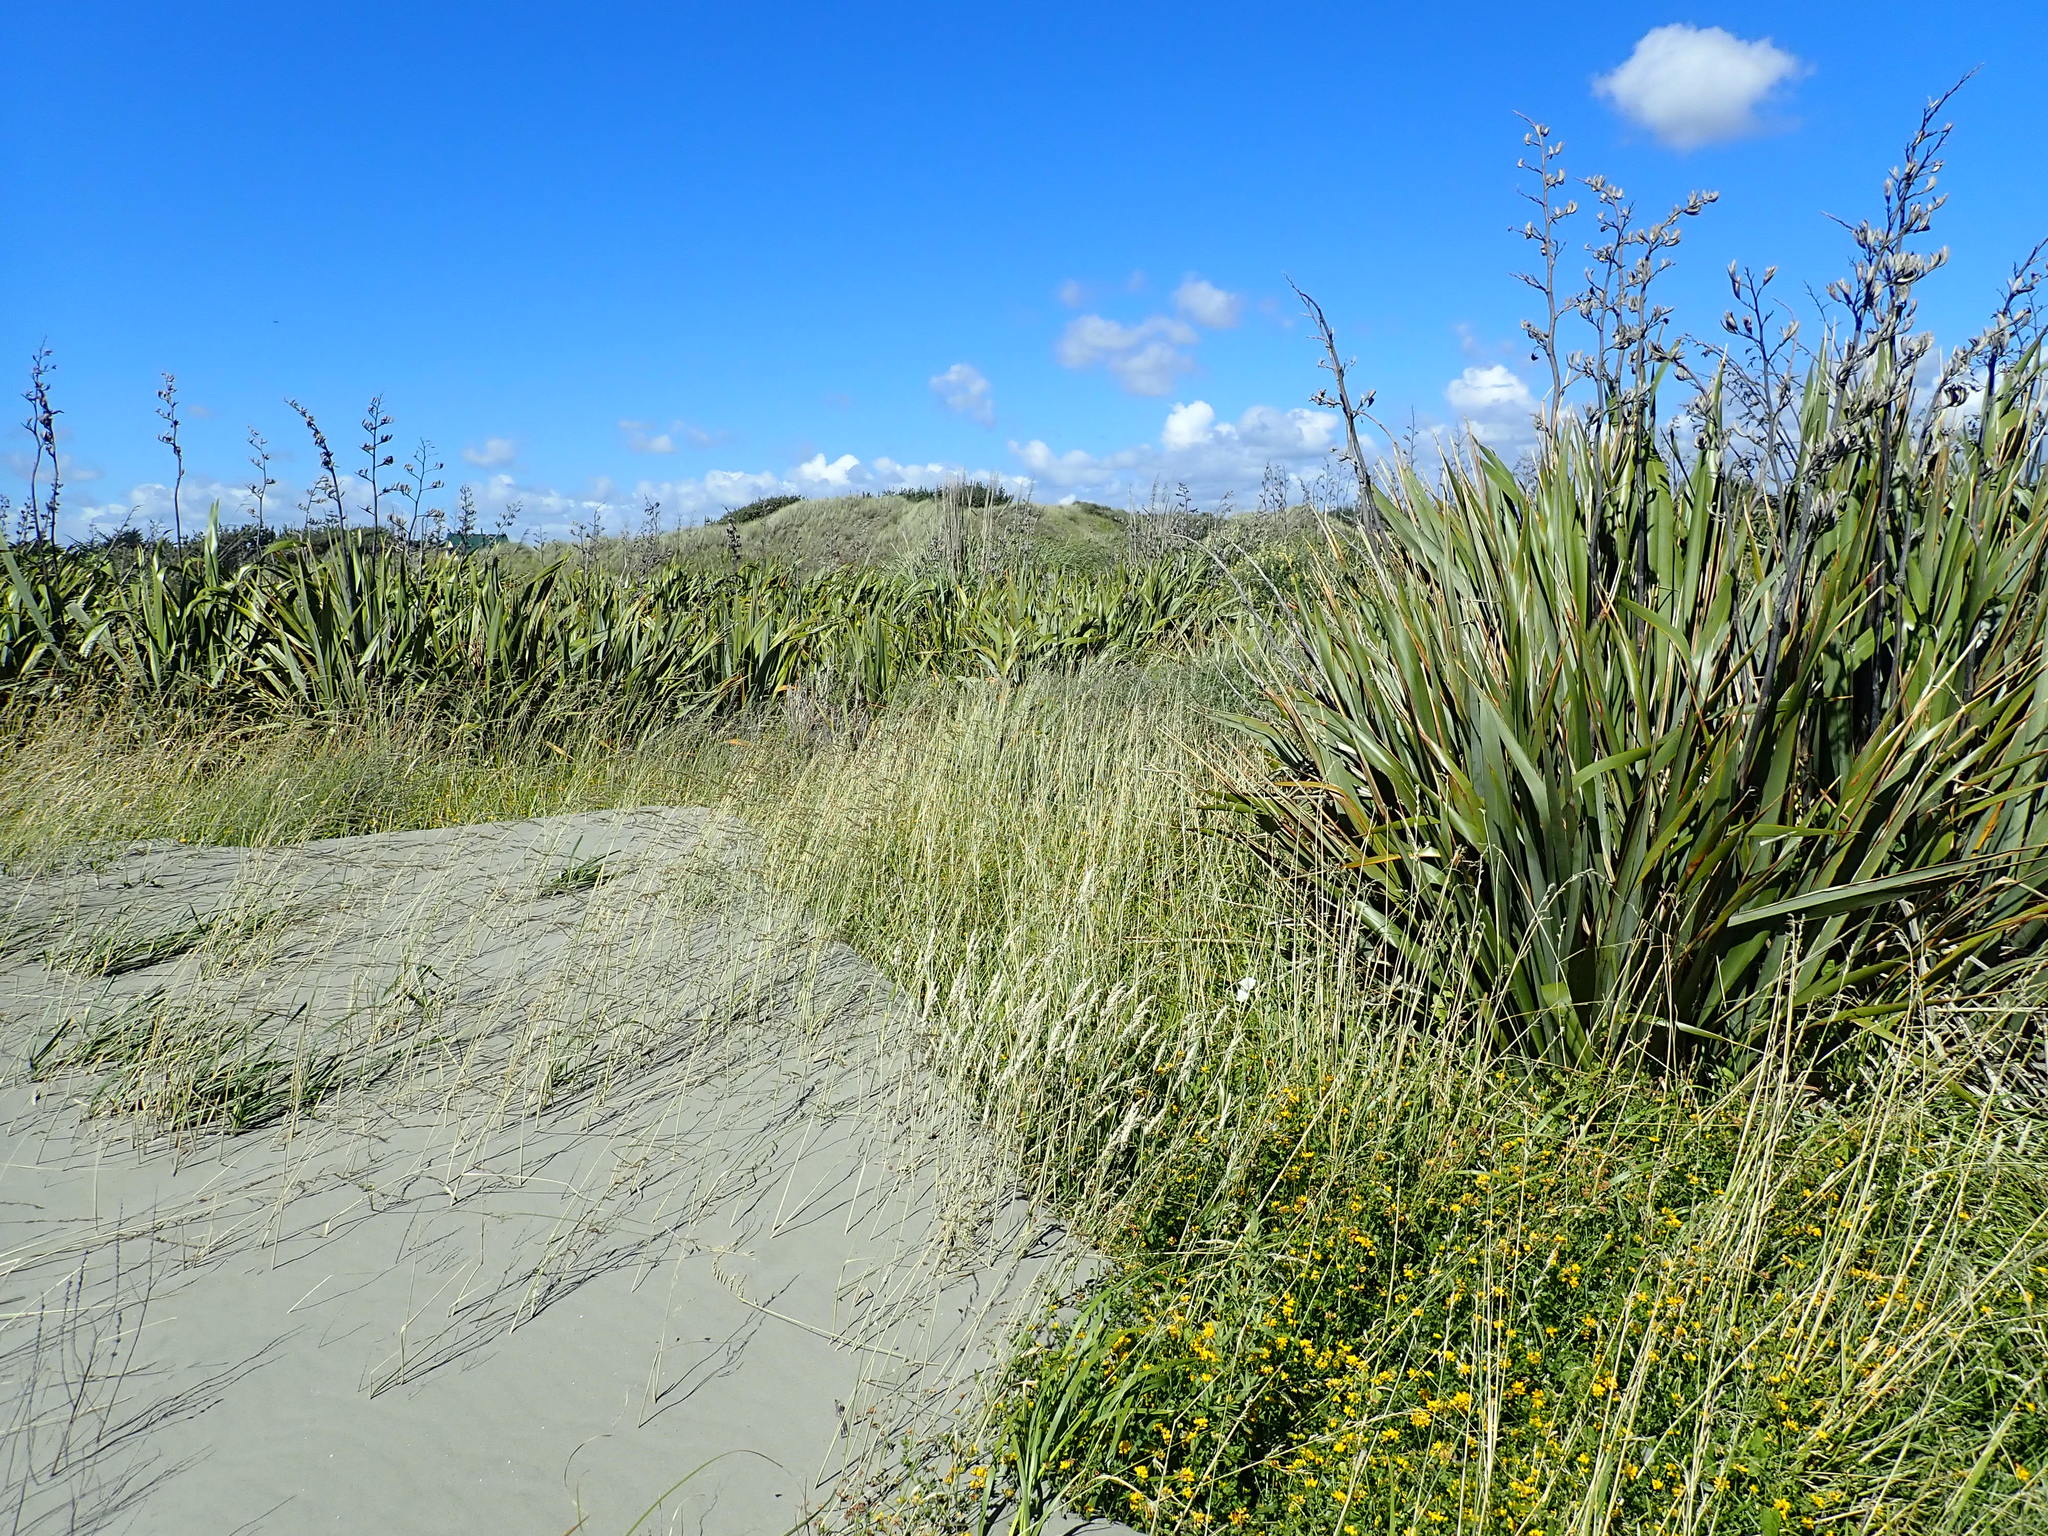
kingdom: Plantae
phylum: Tracheophyta
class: Liliopsida
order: Asparagales
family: Asphodelaceae
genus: Phormium
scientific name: Phormium tenax
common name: New zealand flax
